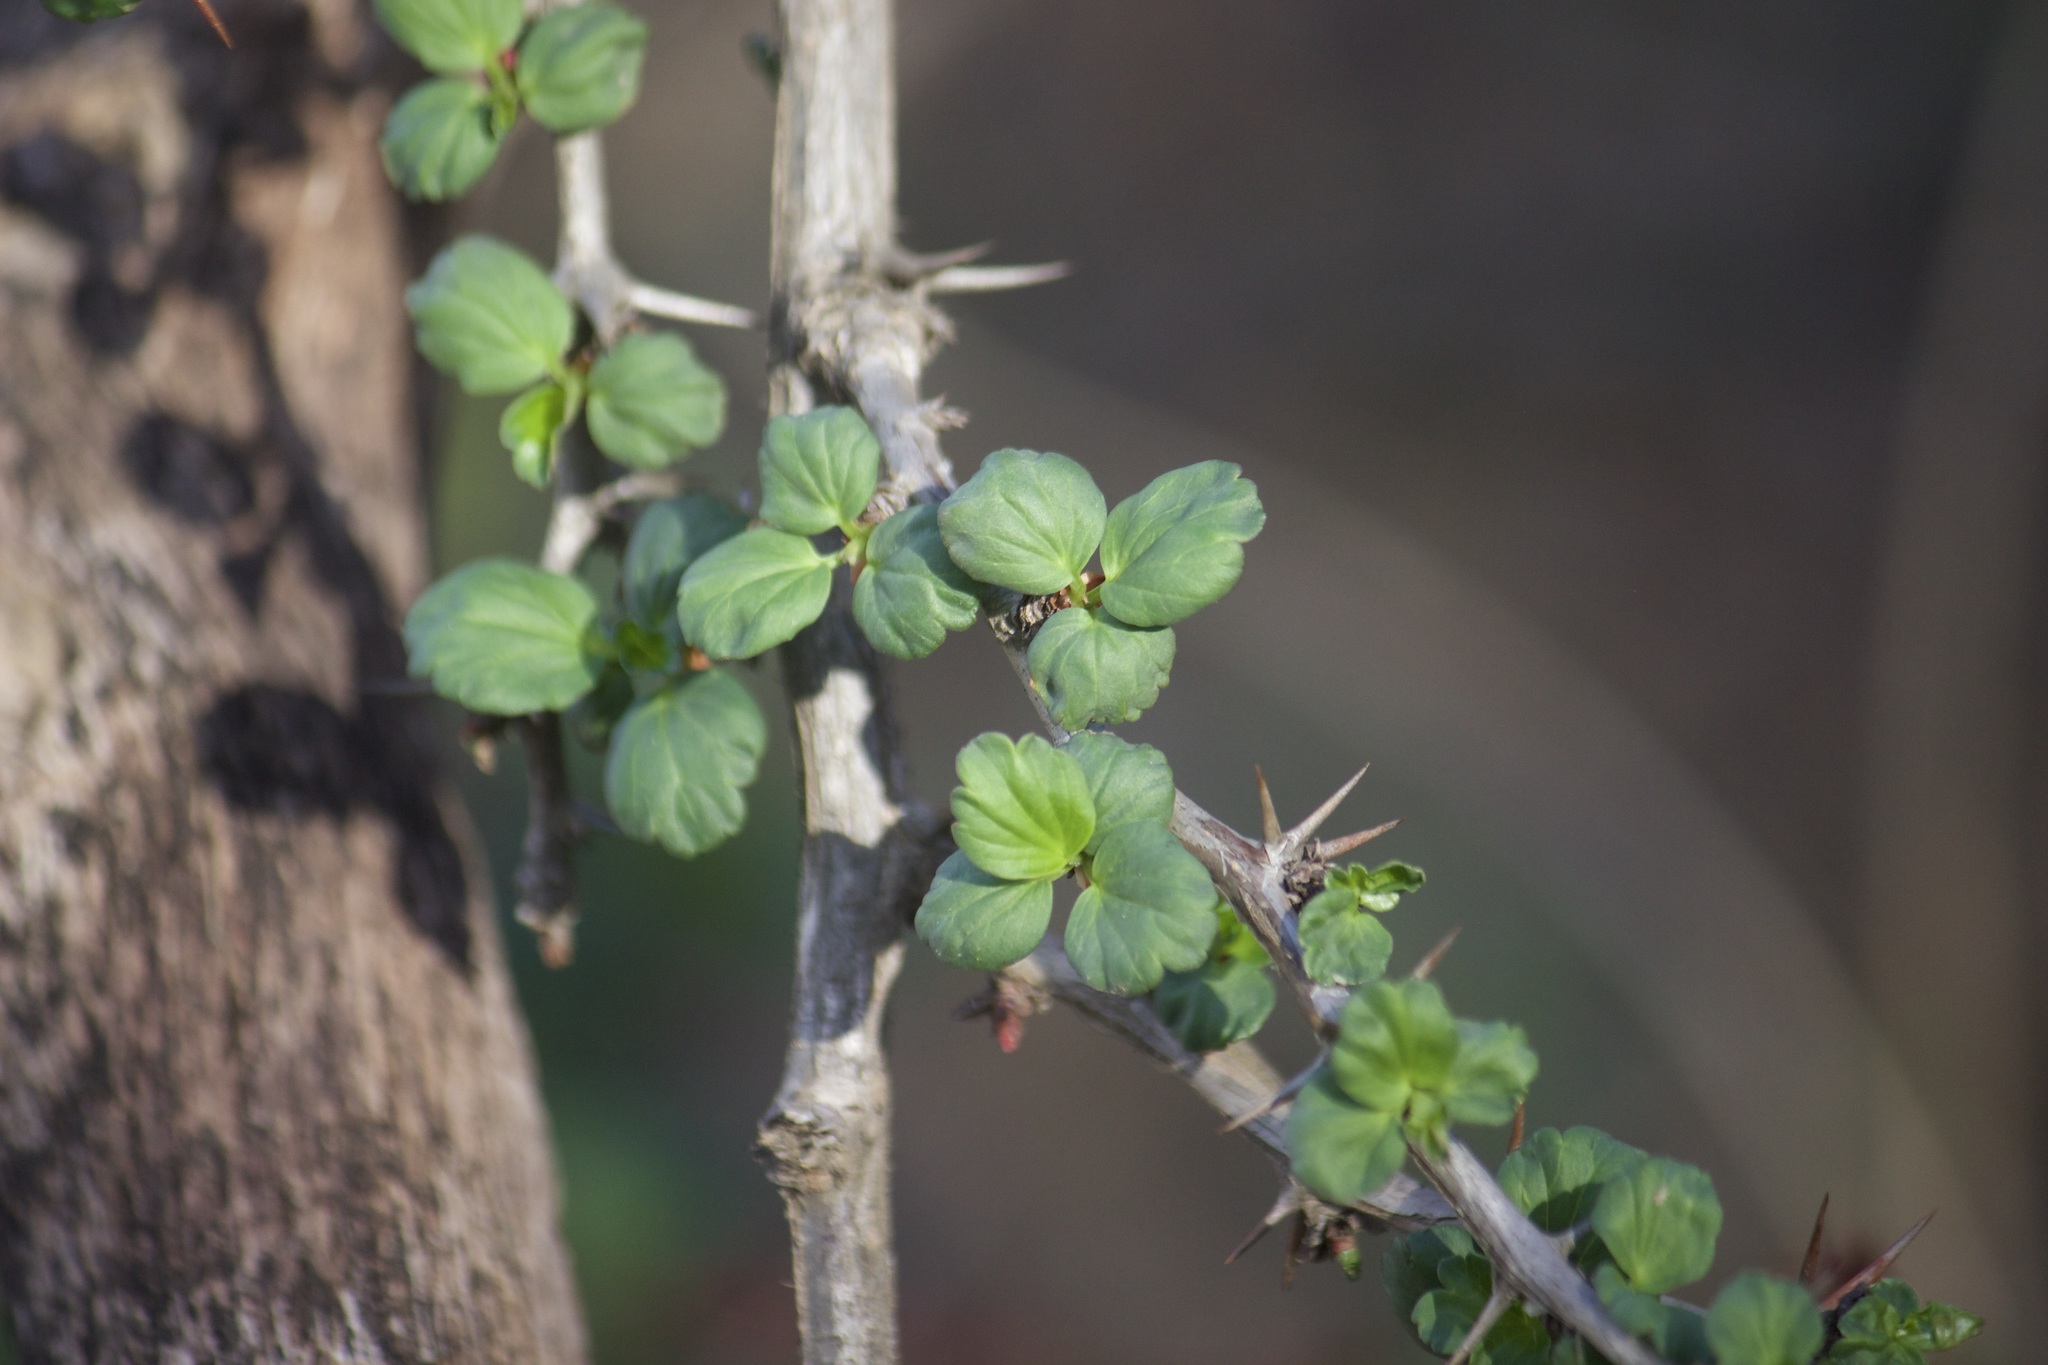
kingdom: Plantae
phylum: Tracheophyta
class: Magnoliopsida
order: Saxifragales
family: Grossulariaceae
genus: Ribes
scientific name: Ribes speciosum
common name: Fuchsia-flower gooseberry
